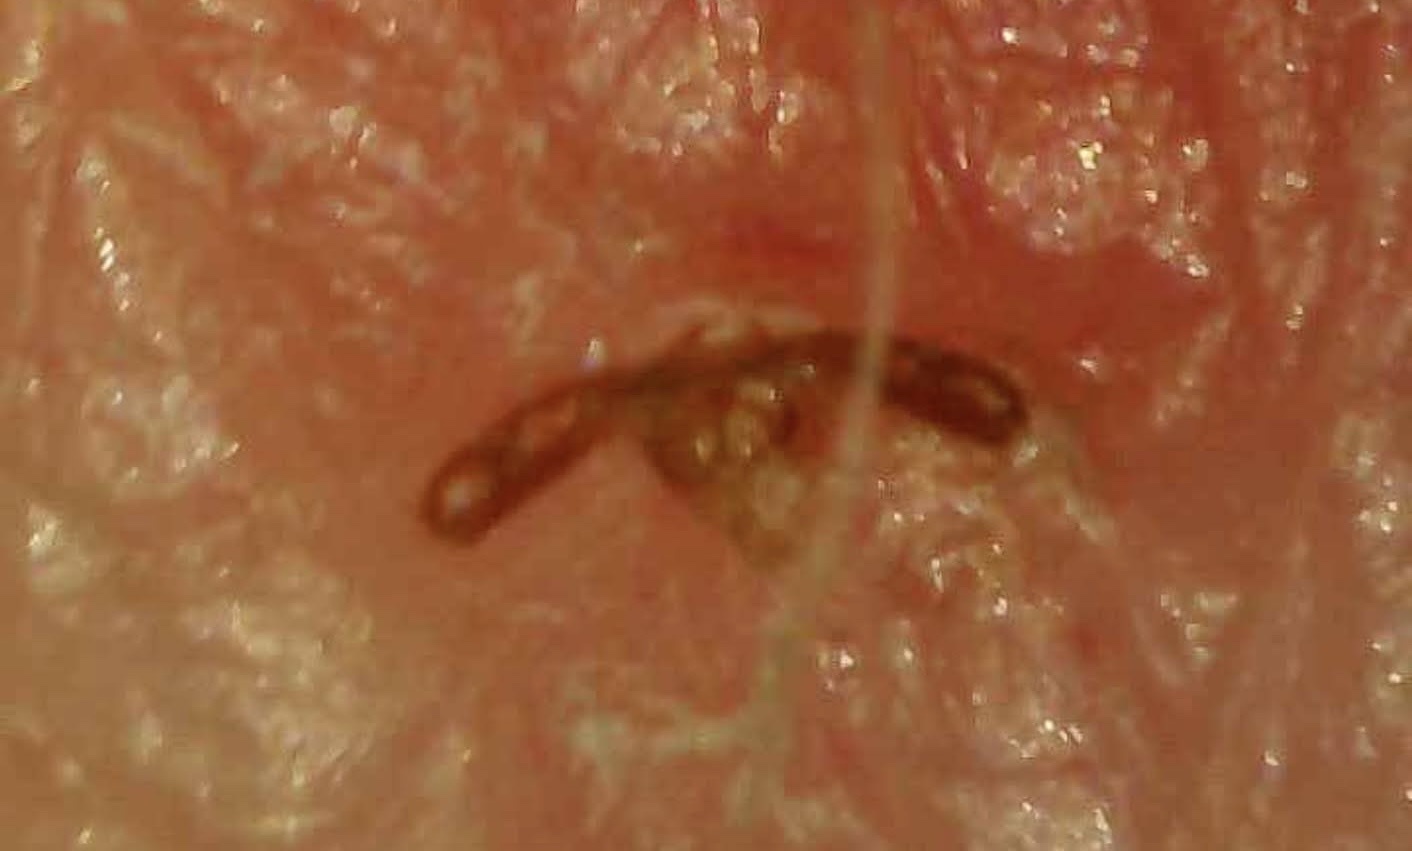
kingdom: Animalia
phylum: Arthropoda
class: Arachnida
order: Ixodida
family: Ixodidae
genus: Amblyomma
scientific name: Amblyomma americanum
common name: Lone star tick
